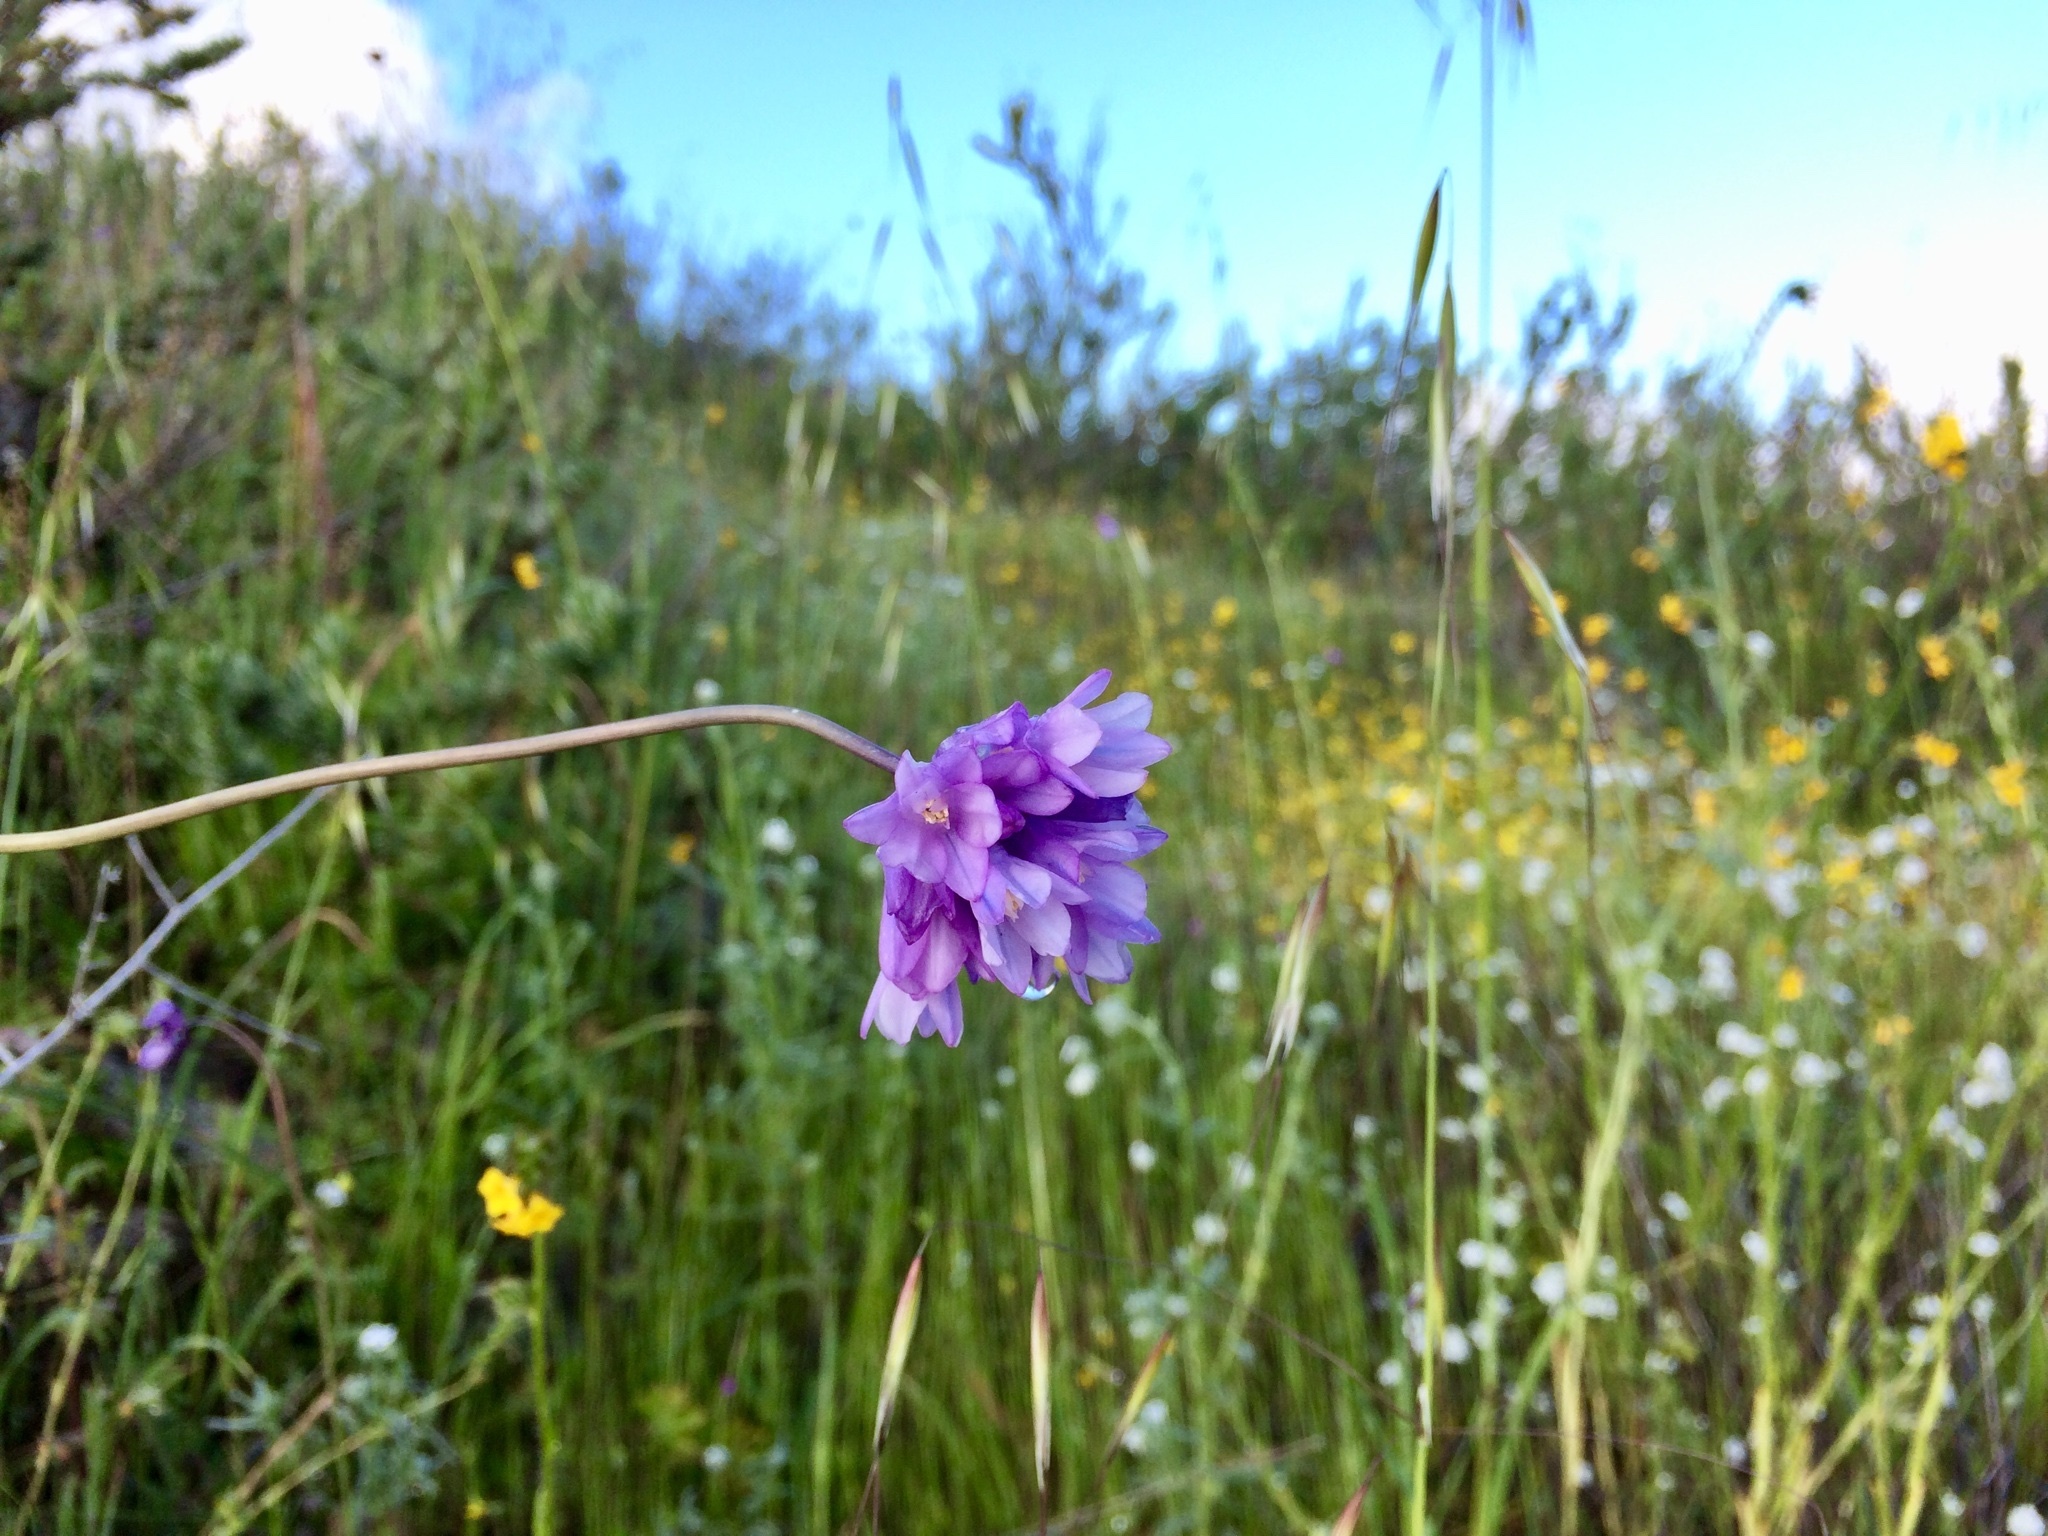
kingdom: Plantae
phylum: Tracheophyta
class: Liliopsida
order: Asparagales
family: Asparagaceae
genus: Dipterostemon
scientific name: Dipterostemon capitatus
